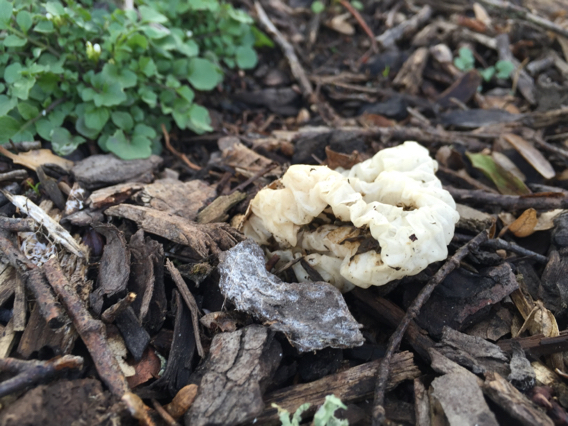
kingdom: Fungi
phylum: Basidiomycota
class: Agaricomycetes
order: Phallales
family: Phallaceae
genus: Ileodictyon
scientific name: Ileodictyon cibarium
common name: Basket fungus
